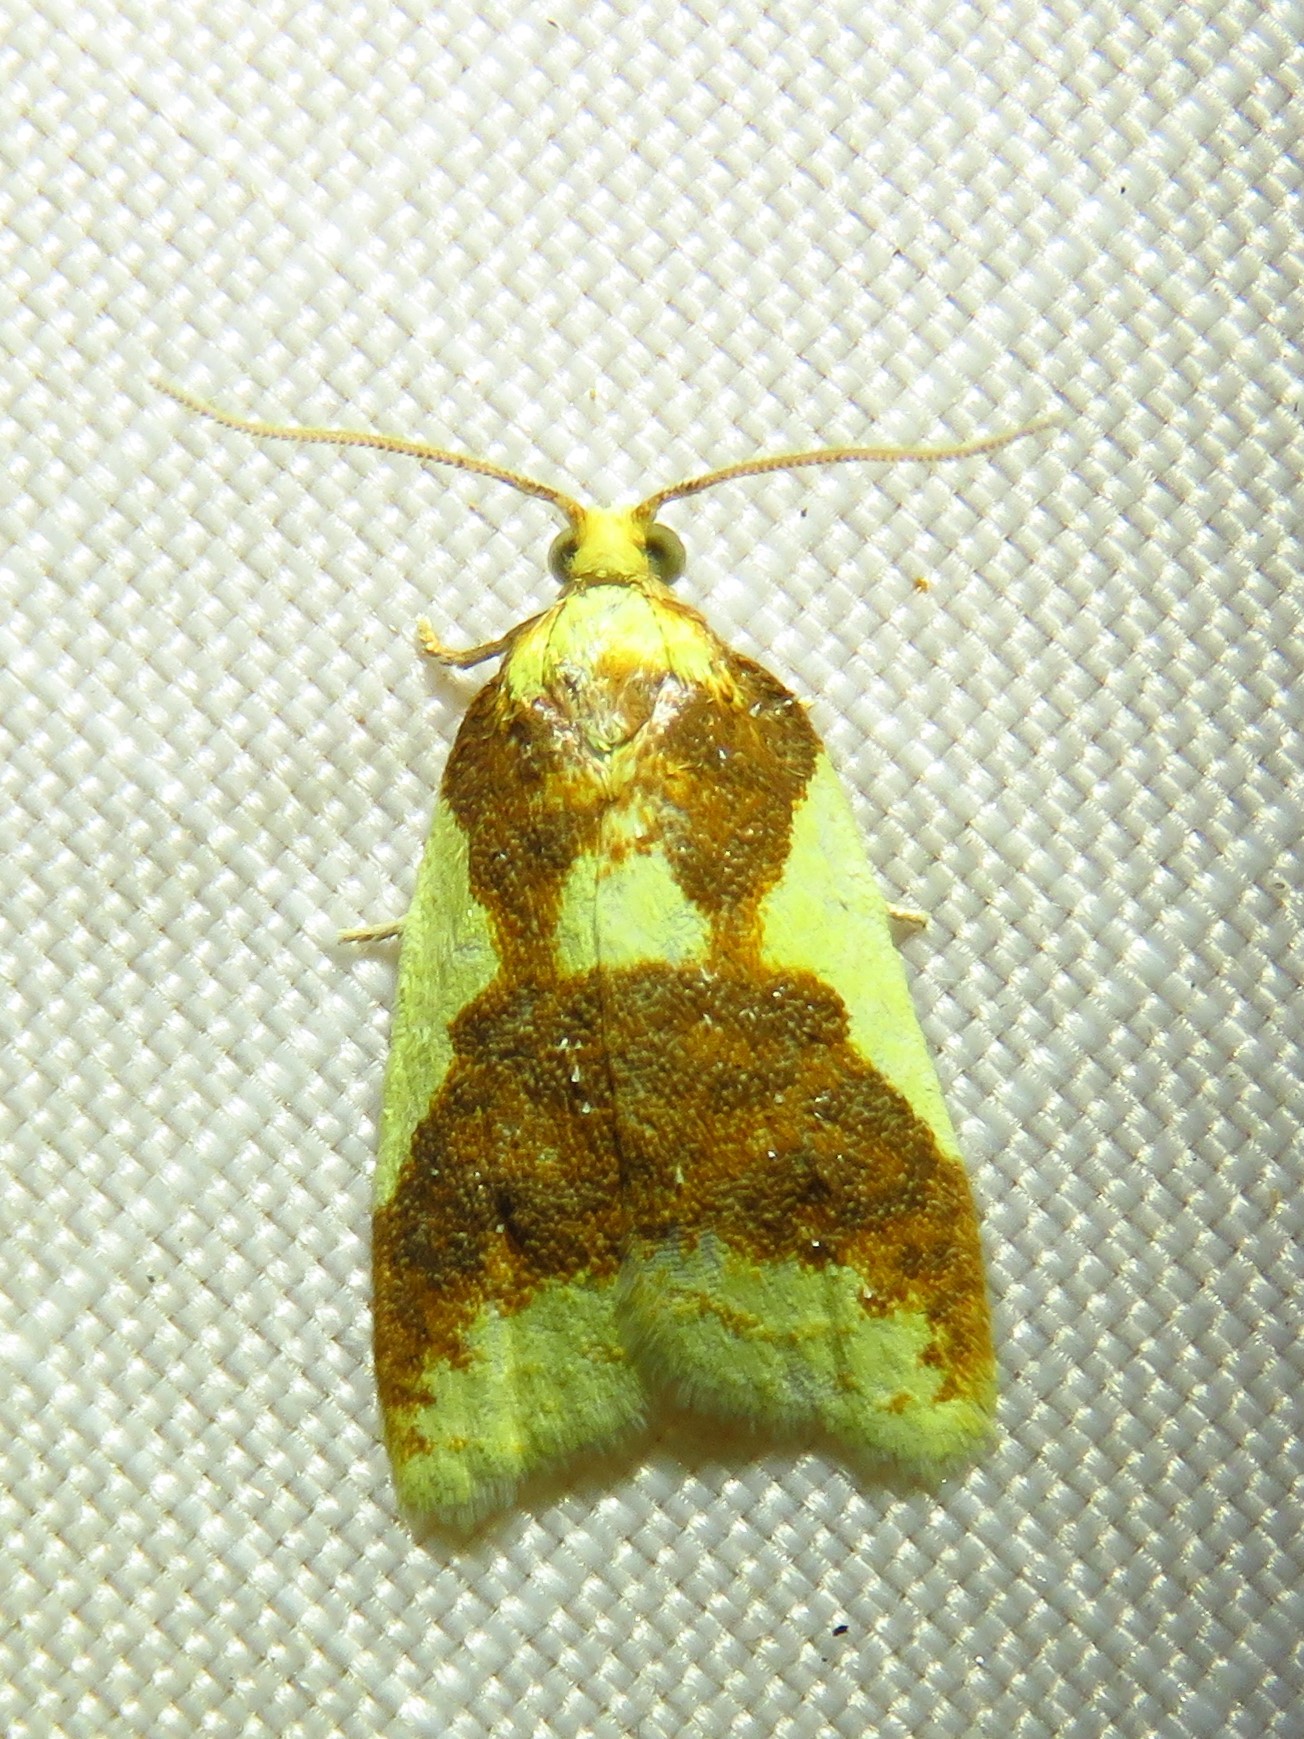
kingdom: Animalia
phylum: Arthropoda
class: Insecta
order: Lepidoptera
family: Tortricidae
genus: Sparganothis
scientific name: Sparganothis pulcherrimana
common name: Beautiful sparganothis
